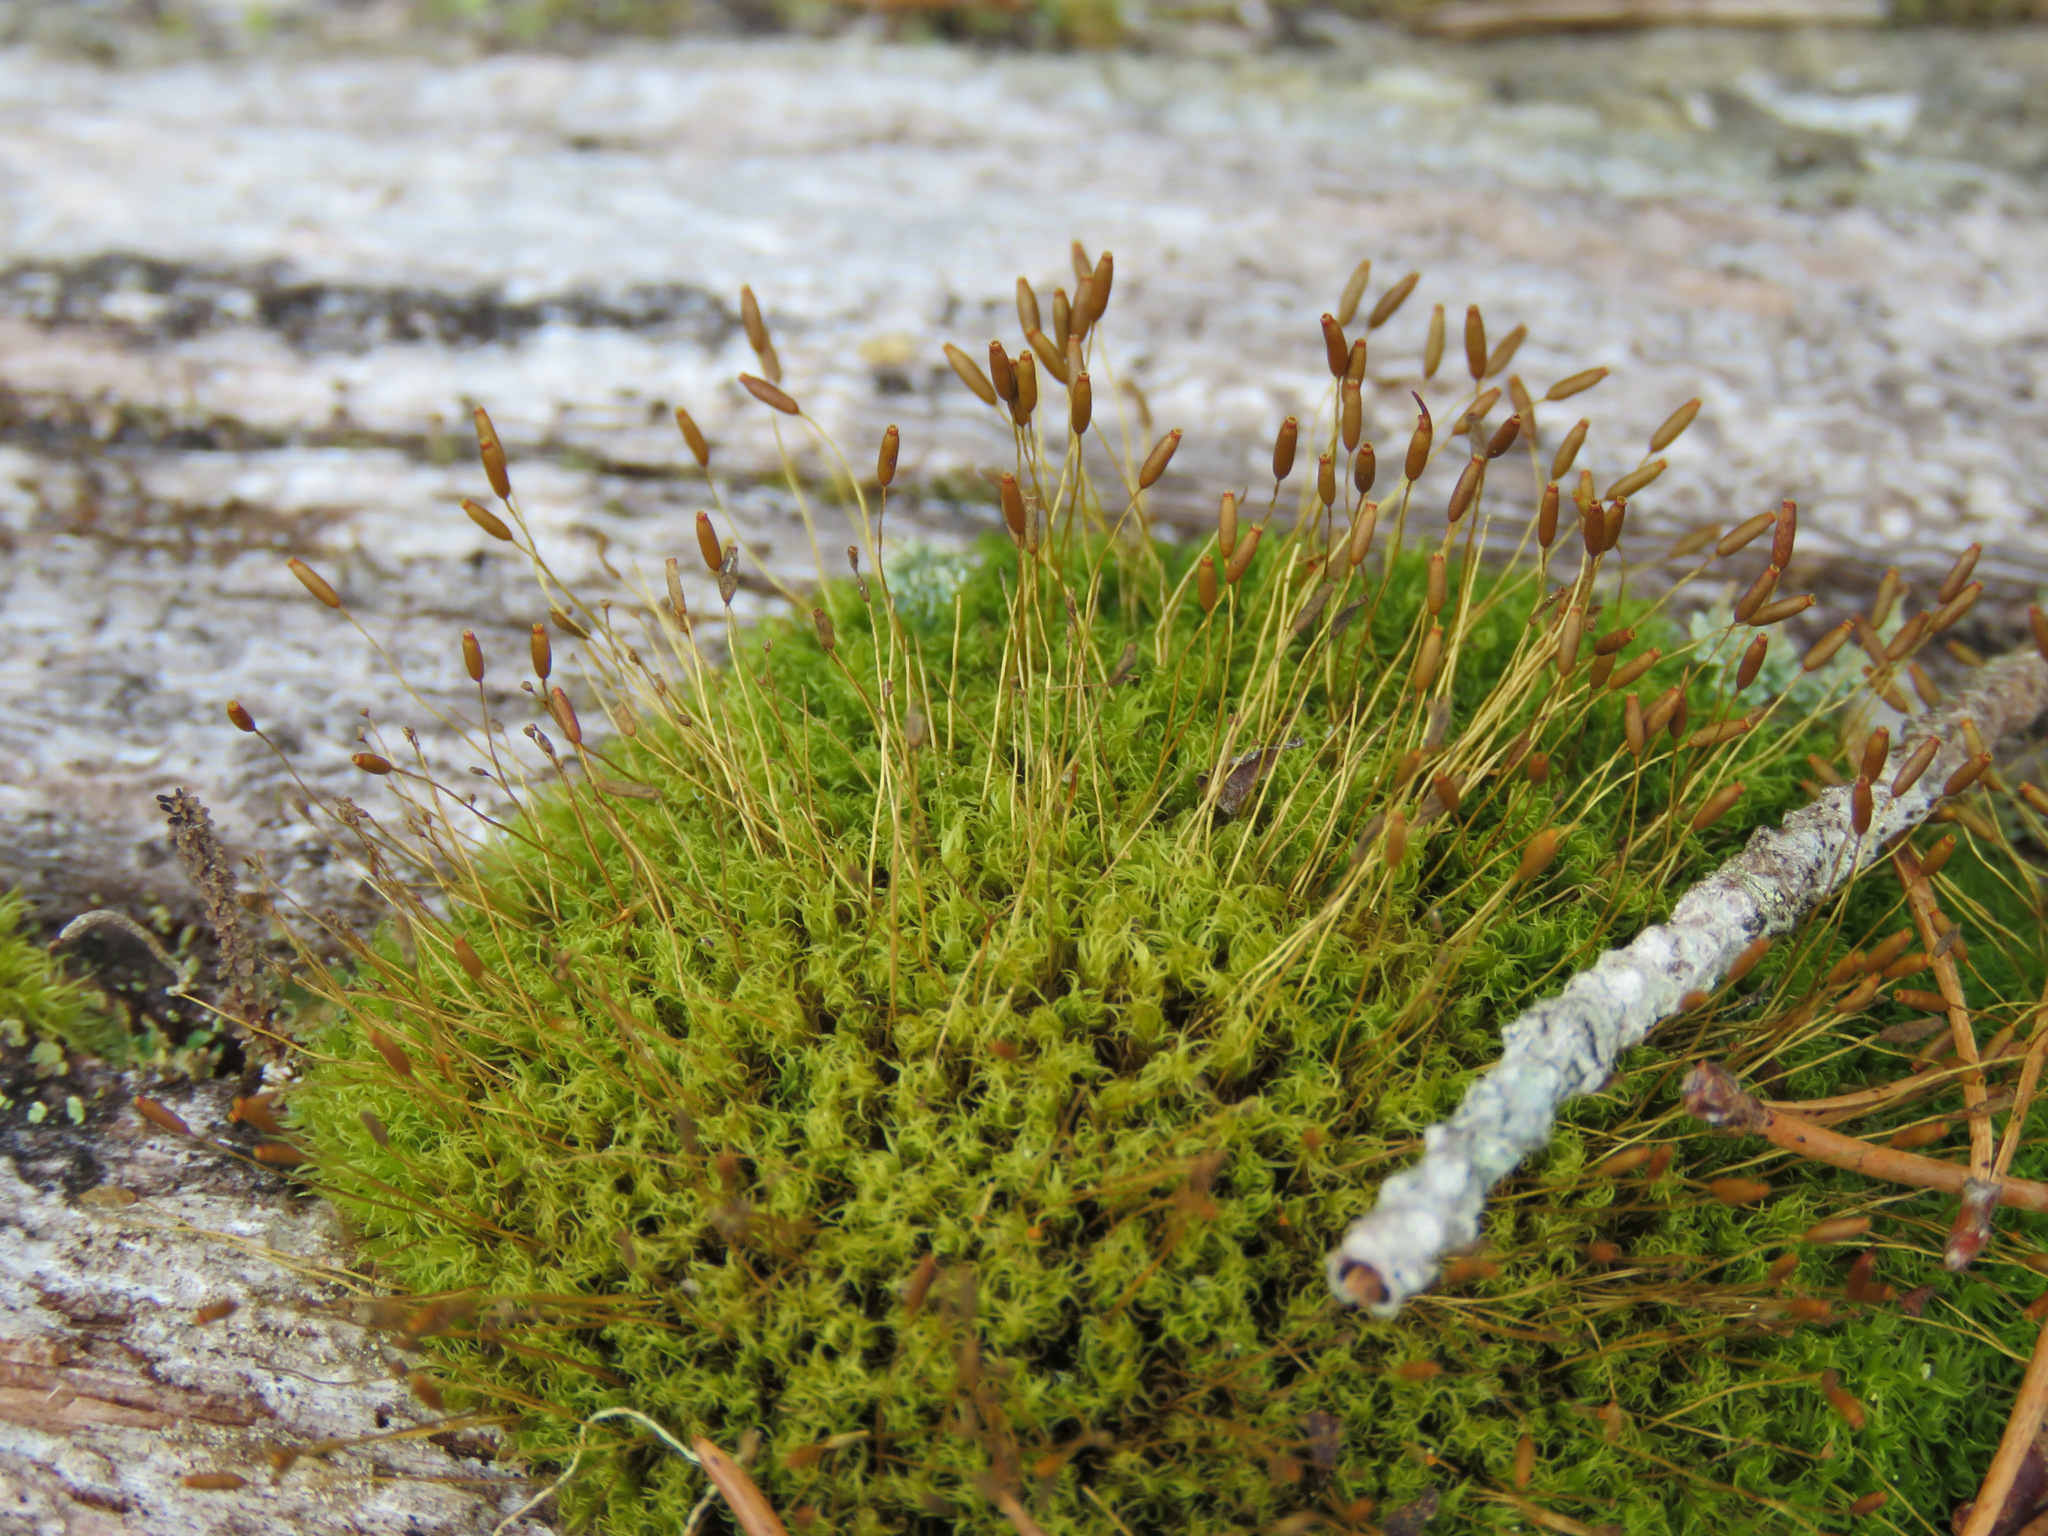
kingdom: Plantae
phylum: Bryophyta
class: Bryopsida
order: Dicranales
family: Rhabdoweisiaceae
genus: Dicranoweisia
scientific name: Dicranoweisia cirrata
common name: Common pincushion
